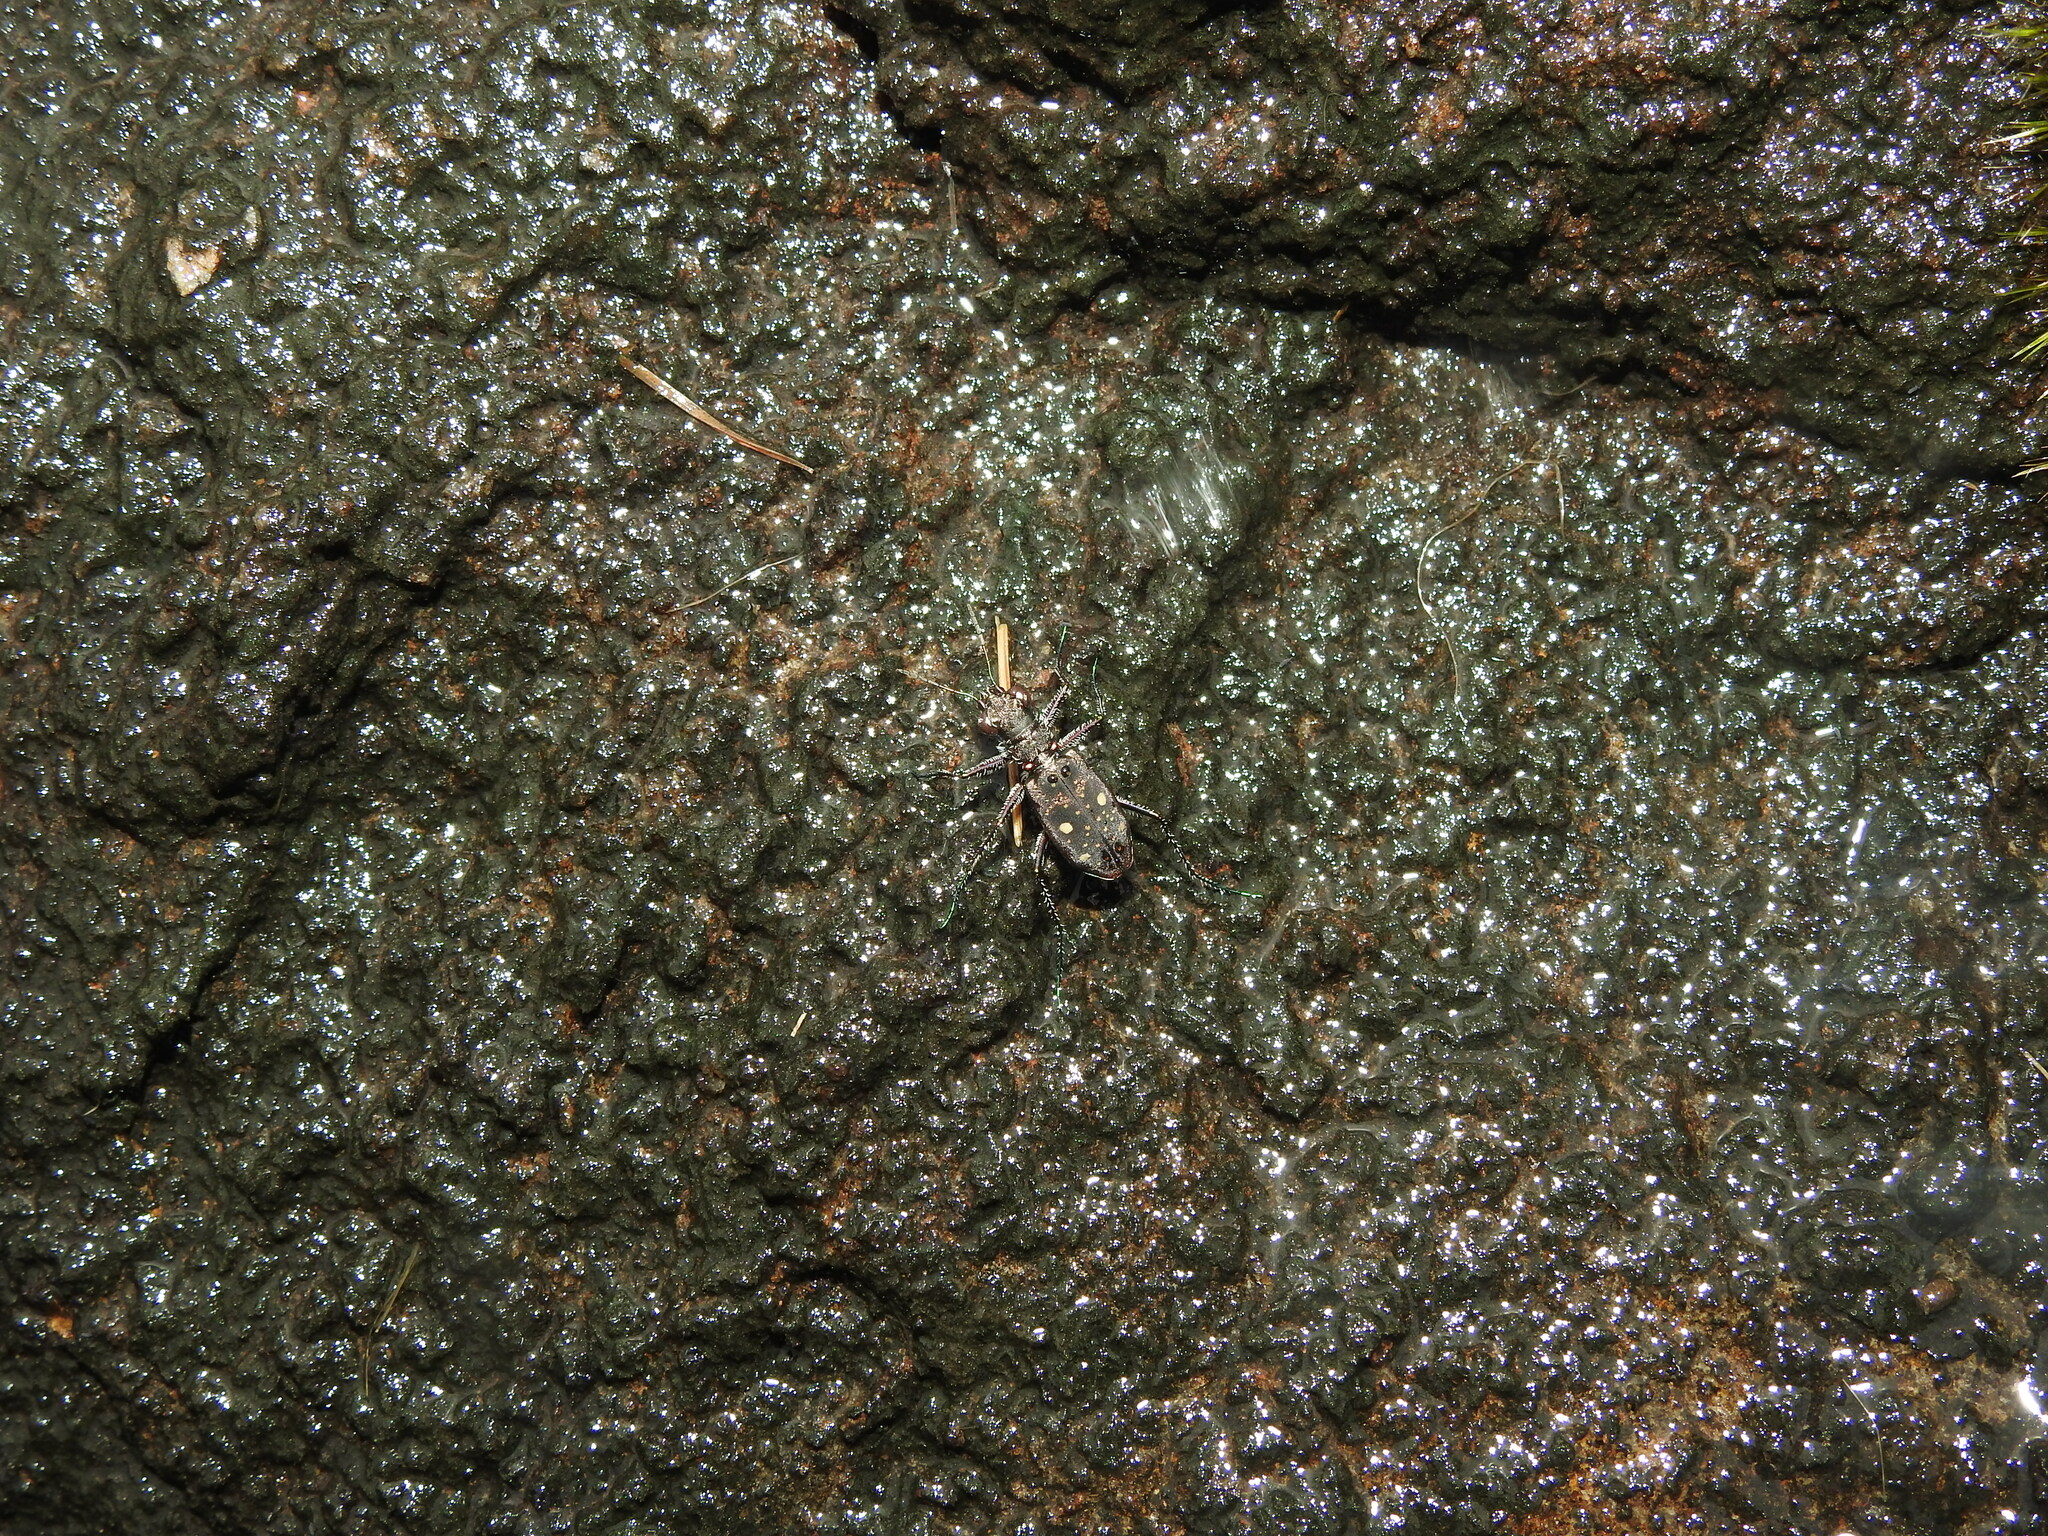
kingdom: Animalia
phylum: Arthropoda
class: Insecta
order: Coleoptera
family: Carabidae
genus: Jansenia
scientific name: Jansenia tetragrammica
